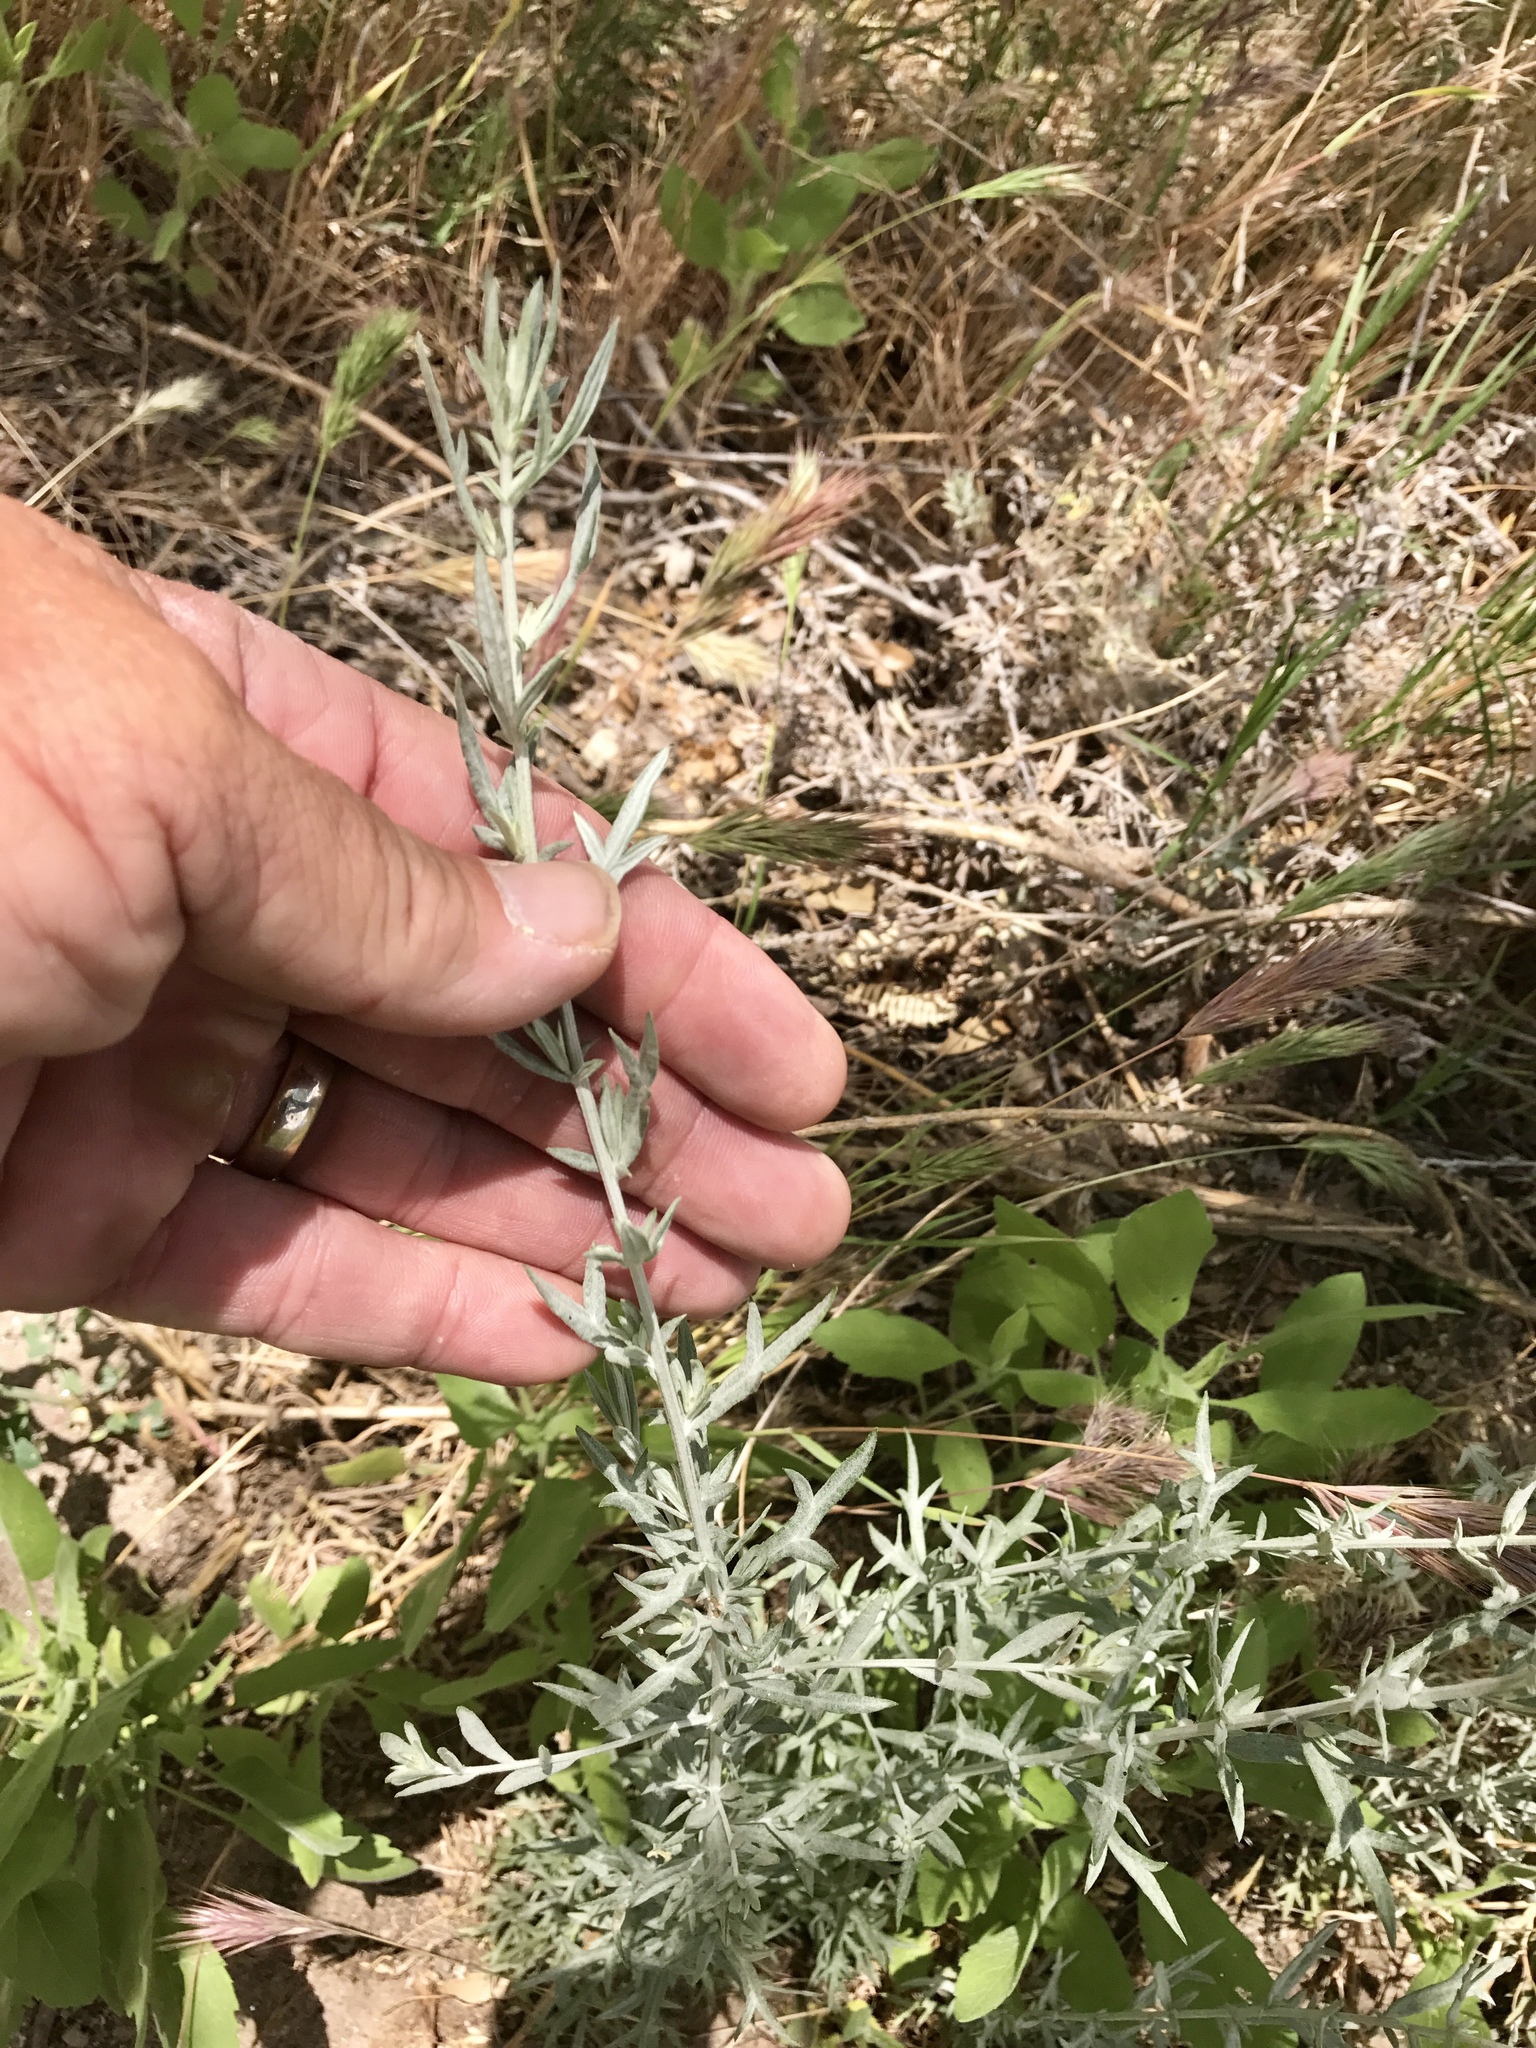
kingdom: Plantae
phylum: Tracheophyta
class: Magnoliopsida
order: Asterales
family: Asteraceae
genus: Artemisia
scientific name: Artemisia ludoviciana
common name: Western mugwort
